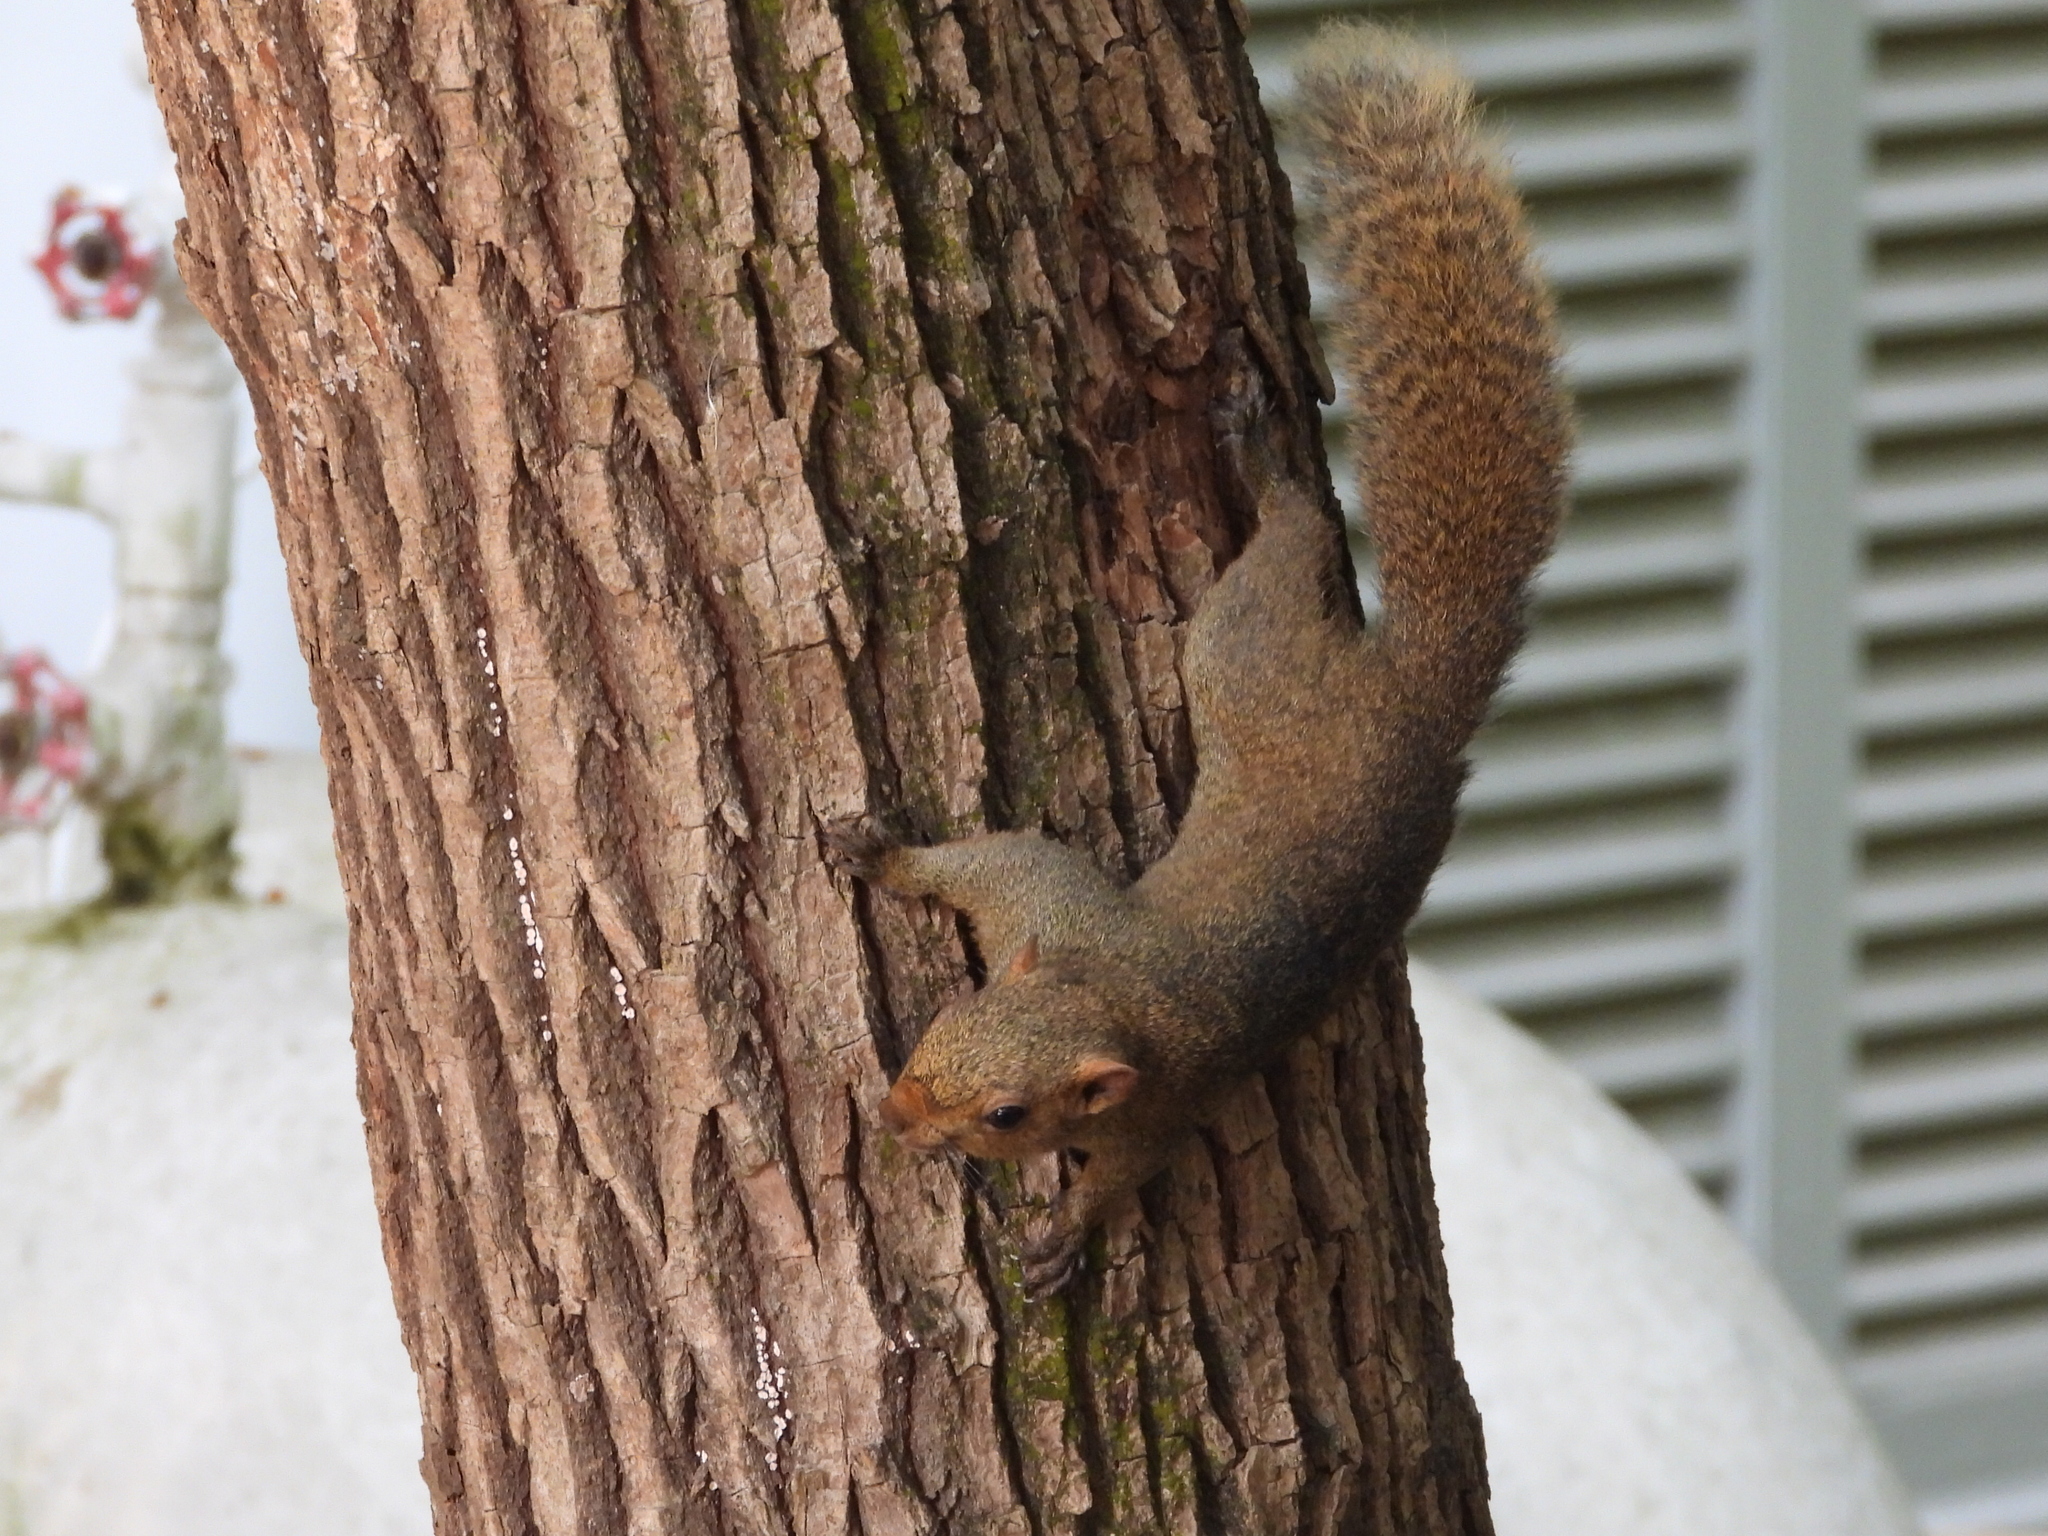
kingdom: Animalia
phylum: Chordata
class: Mammalia
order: Rodentia
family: Sciuridae
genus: Callosciurus
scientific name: Callosciurus erythraeus
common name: Pallas's squirrel
